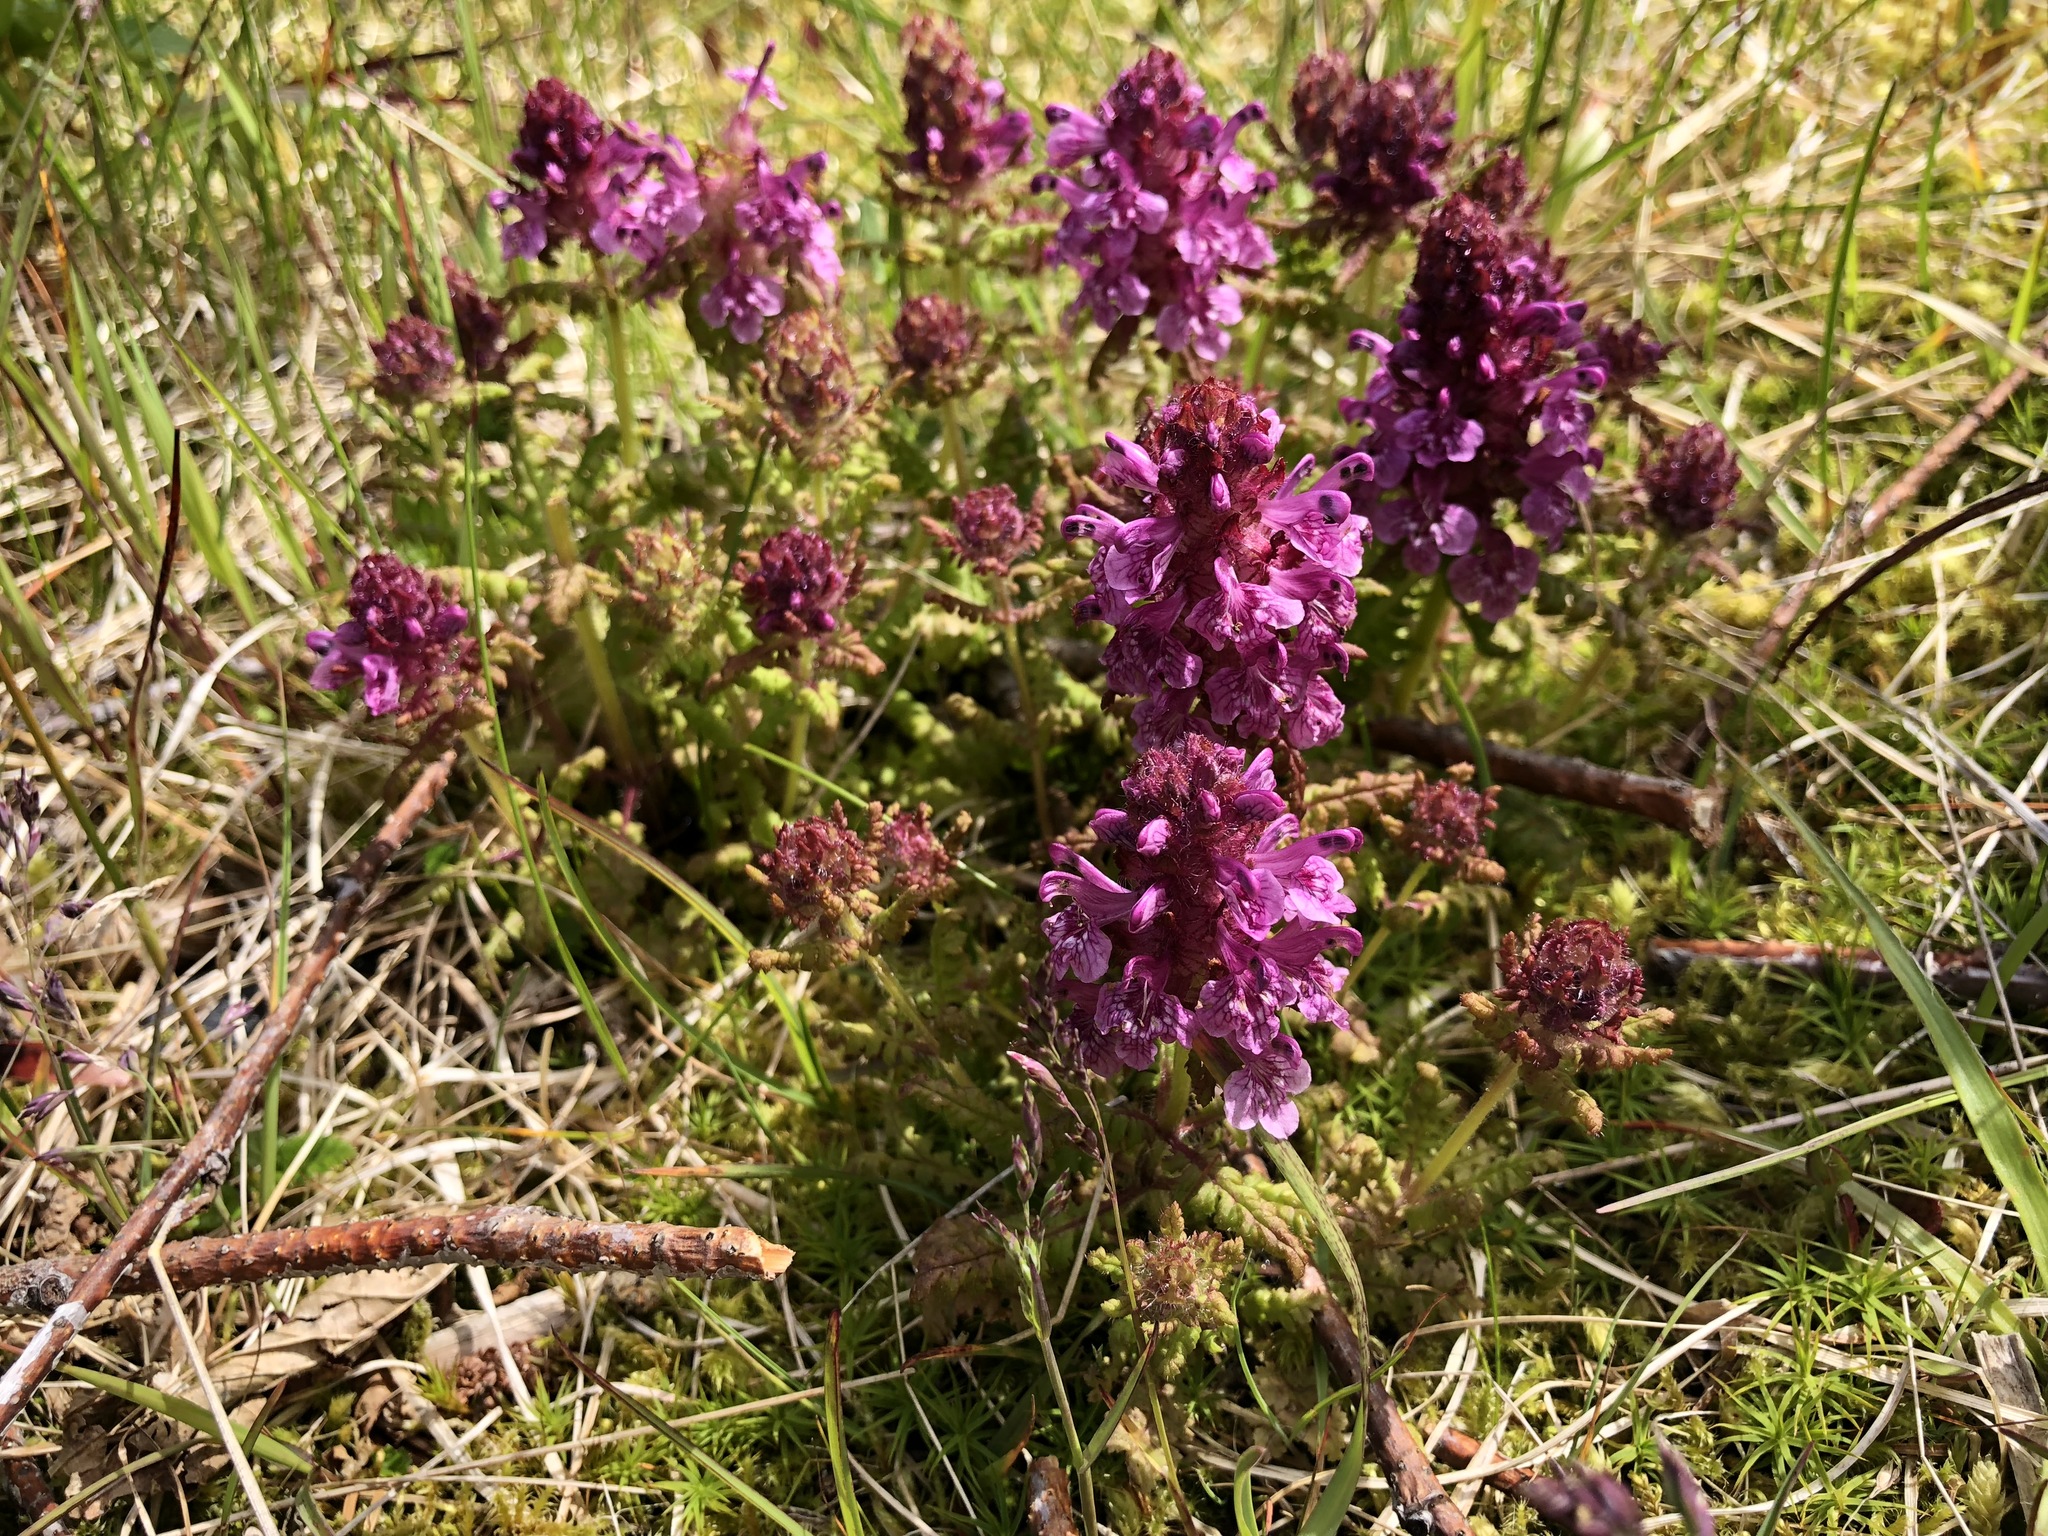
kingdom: Plantae
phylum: Tracheophyta
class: Magnoliopsida
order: Lamiales
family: Orobanchaceae
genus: Pedicularis
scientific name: Pedicularis verticillata
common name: Whorled lousewort
